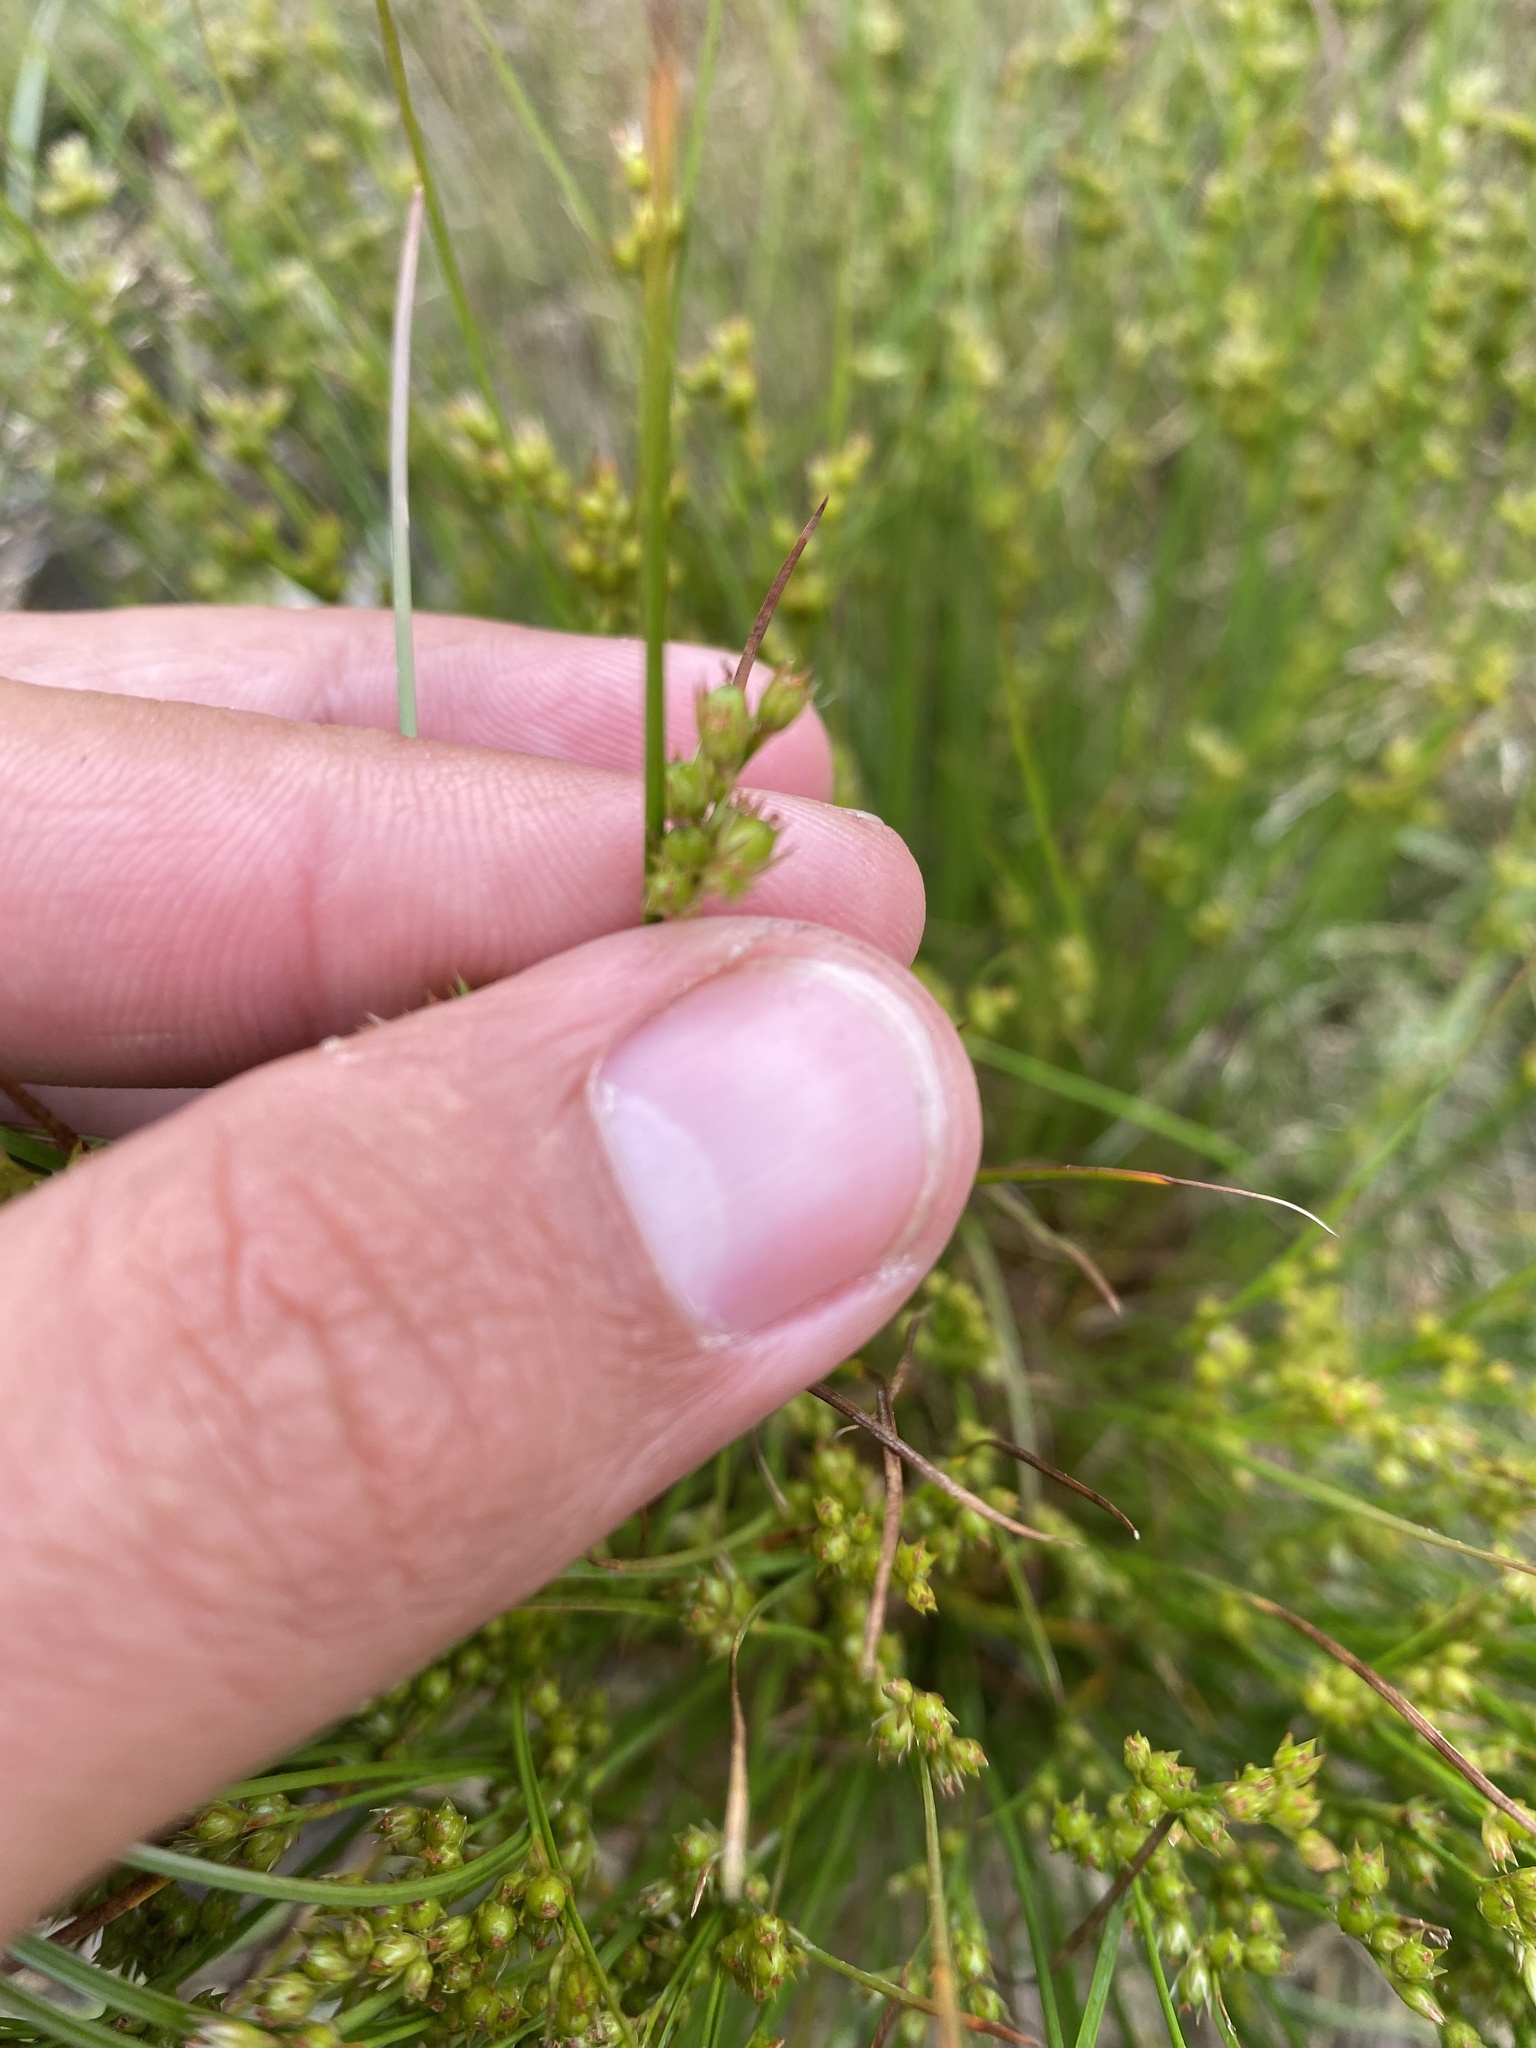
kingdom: Plantae
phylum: Tracheophyta
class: Liliopsida
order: Poales
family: Juncaceae
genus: Juncus
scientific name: Juncus tenuis
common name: Slender rush
